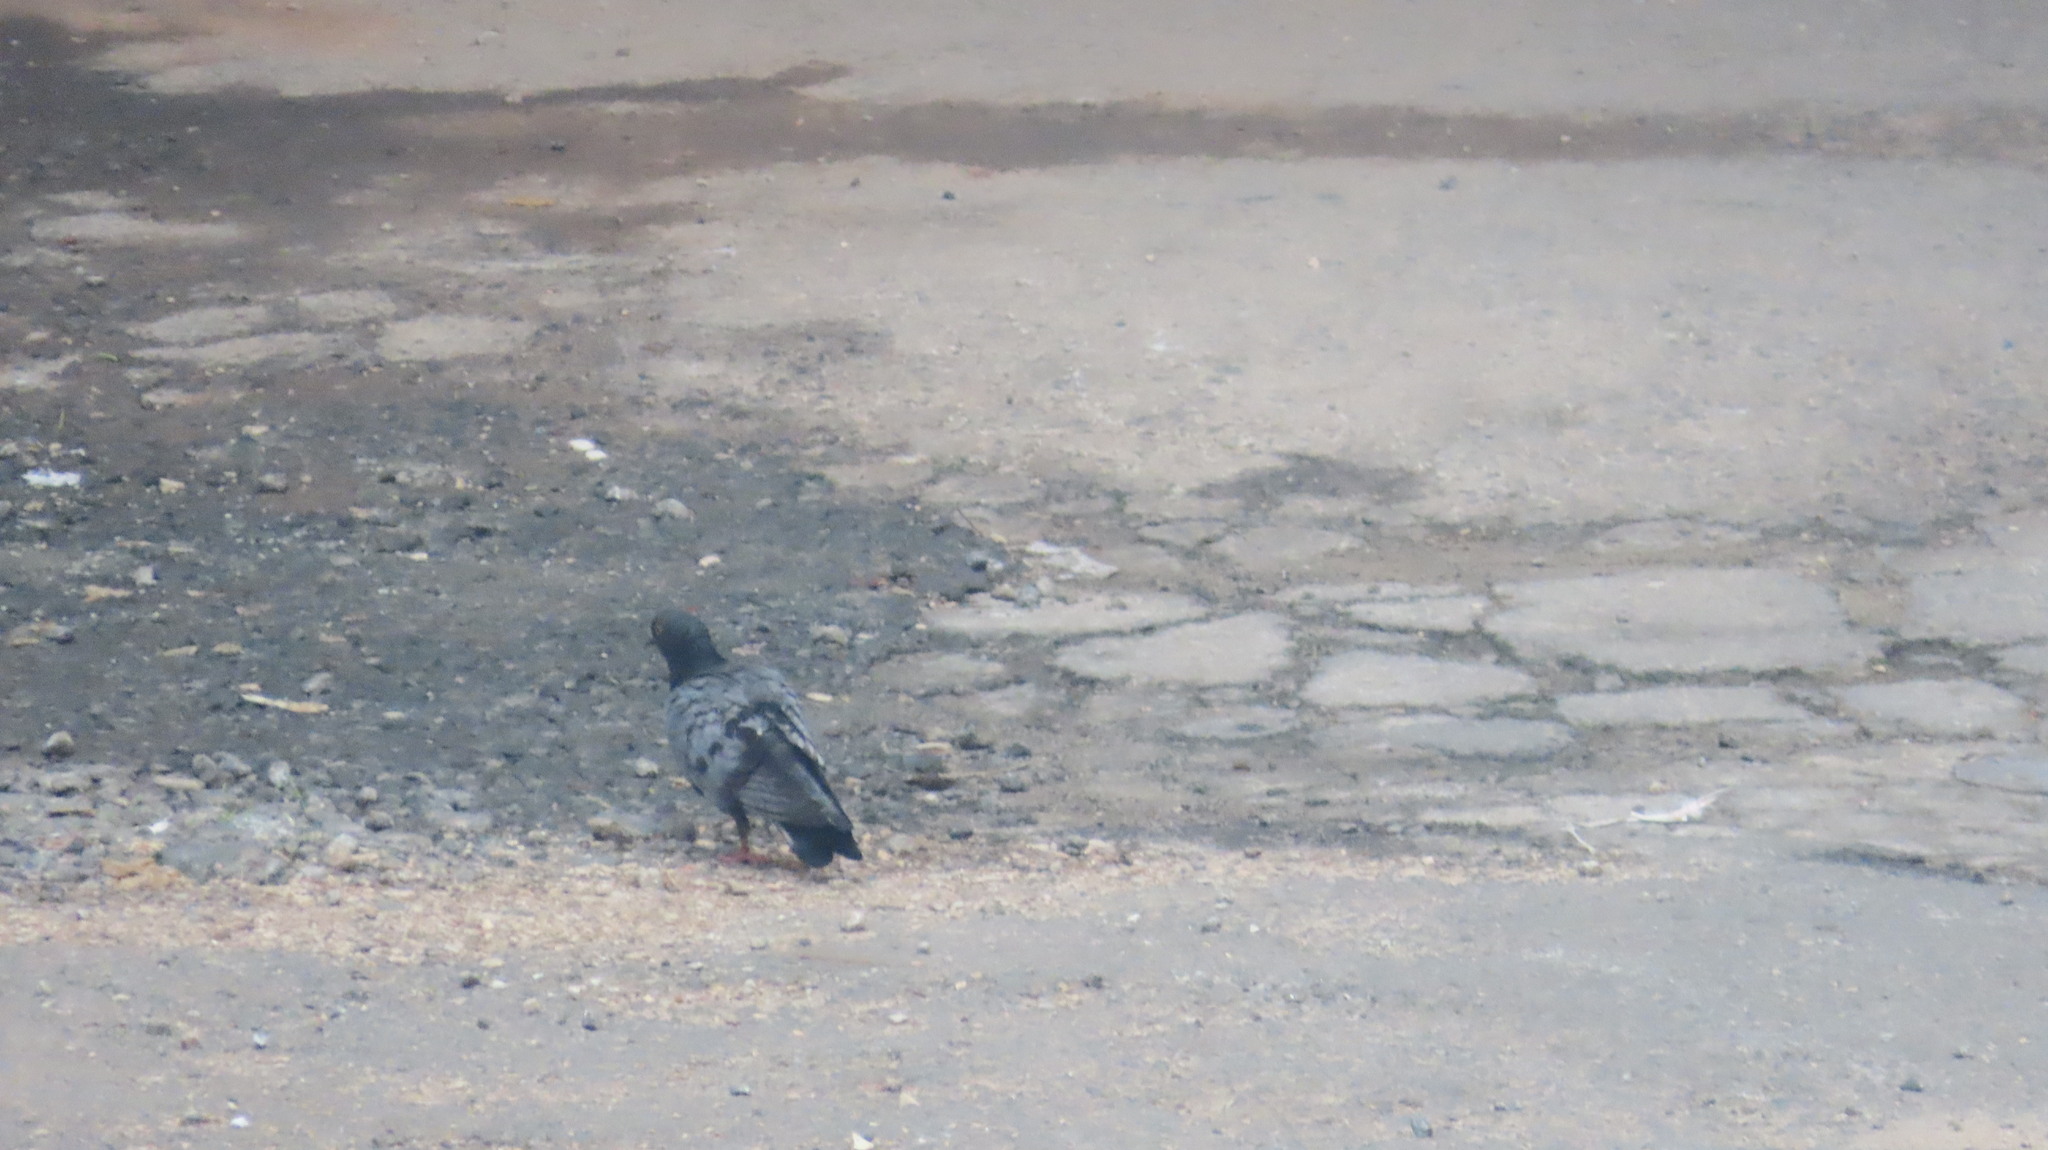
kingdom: Animalia
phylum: Chordata
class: Aves
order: Columbiformes
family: Columbidae
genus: Columba
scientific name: Columba livia
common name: Rock pigeon
